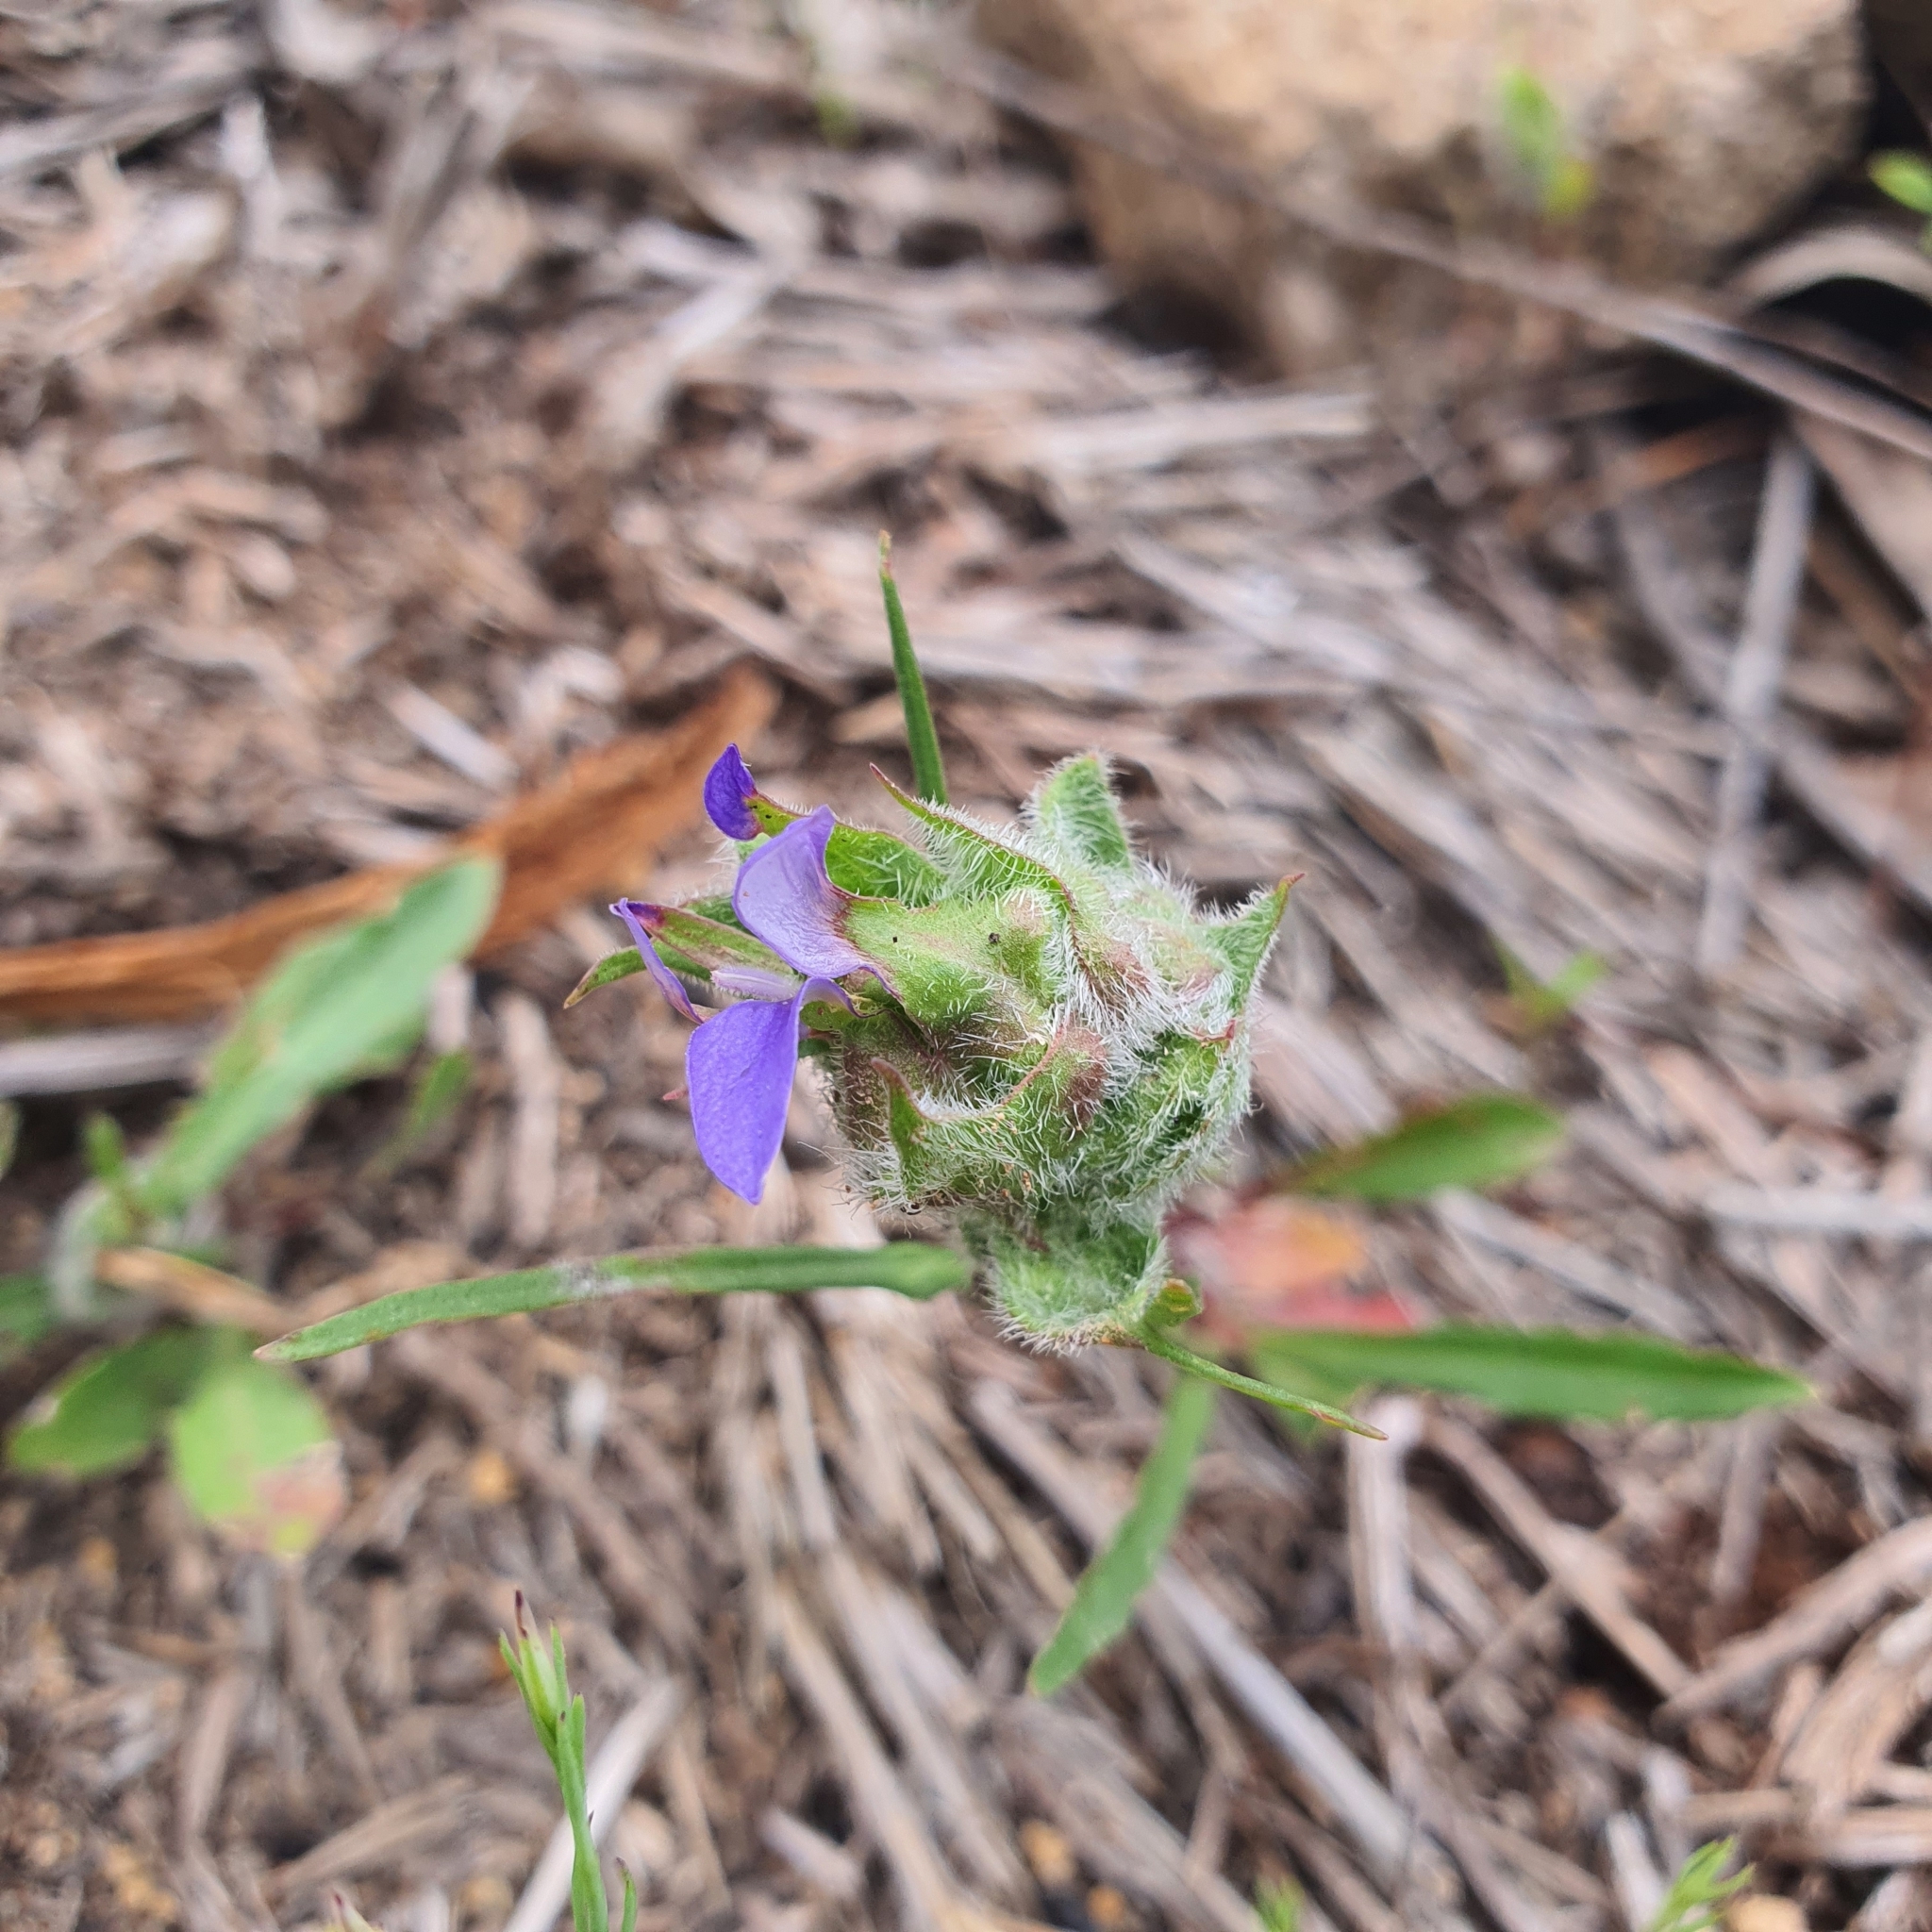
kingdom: Plantae
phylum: Tracheophyta
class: Magnoliopsida
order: Asterales
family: Campanulaceae
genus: Wahlenbergia
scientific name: Wahlenbergia
